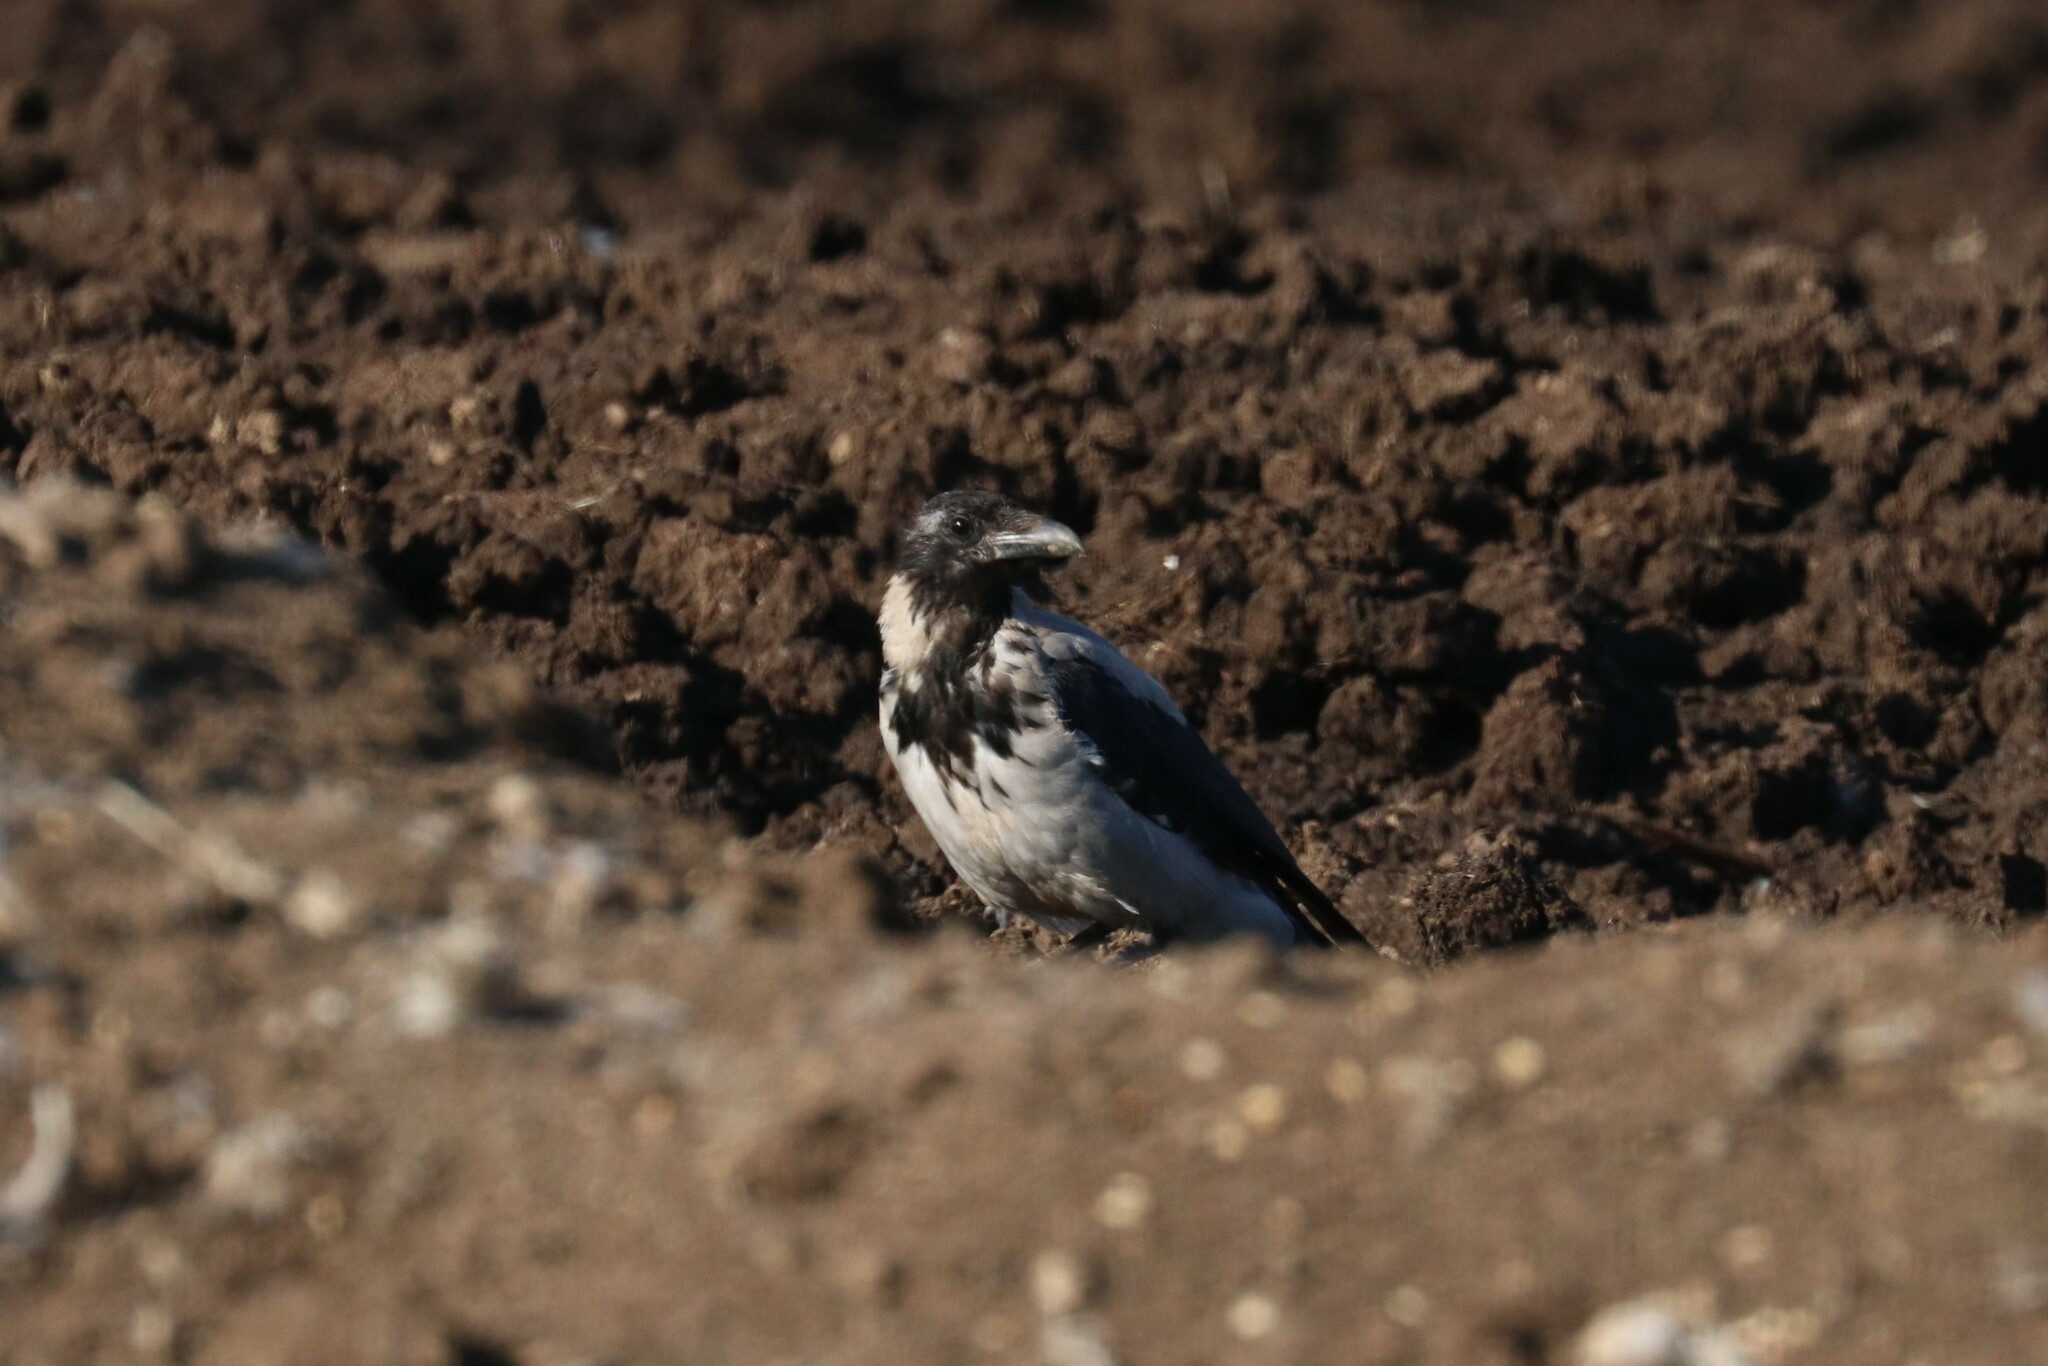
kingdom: Animalia
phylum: Chordata
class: Aves
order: Passeriformes
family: Corvidae
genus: Corvus
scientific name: Corvus cornix
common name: Hooded crow
